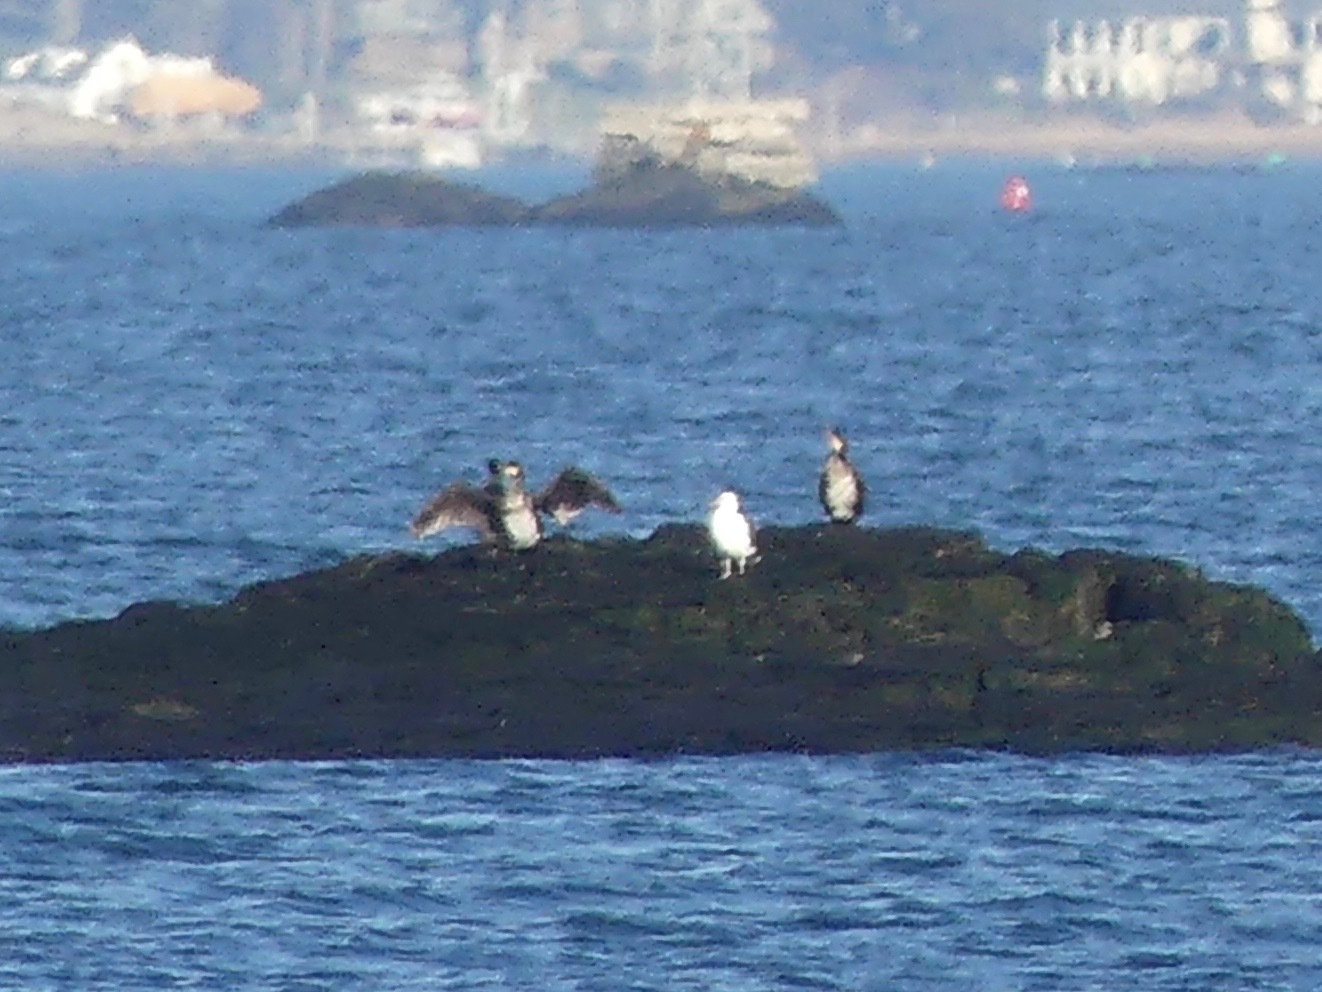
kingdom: Animalia
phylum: Chordata
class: Aves
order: Suliformes
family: Phalacrocoracidae
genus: Phalacrocorax
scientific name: Phalacrocorax carbo
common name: Great cormorant
